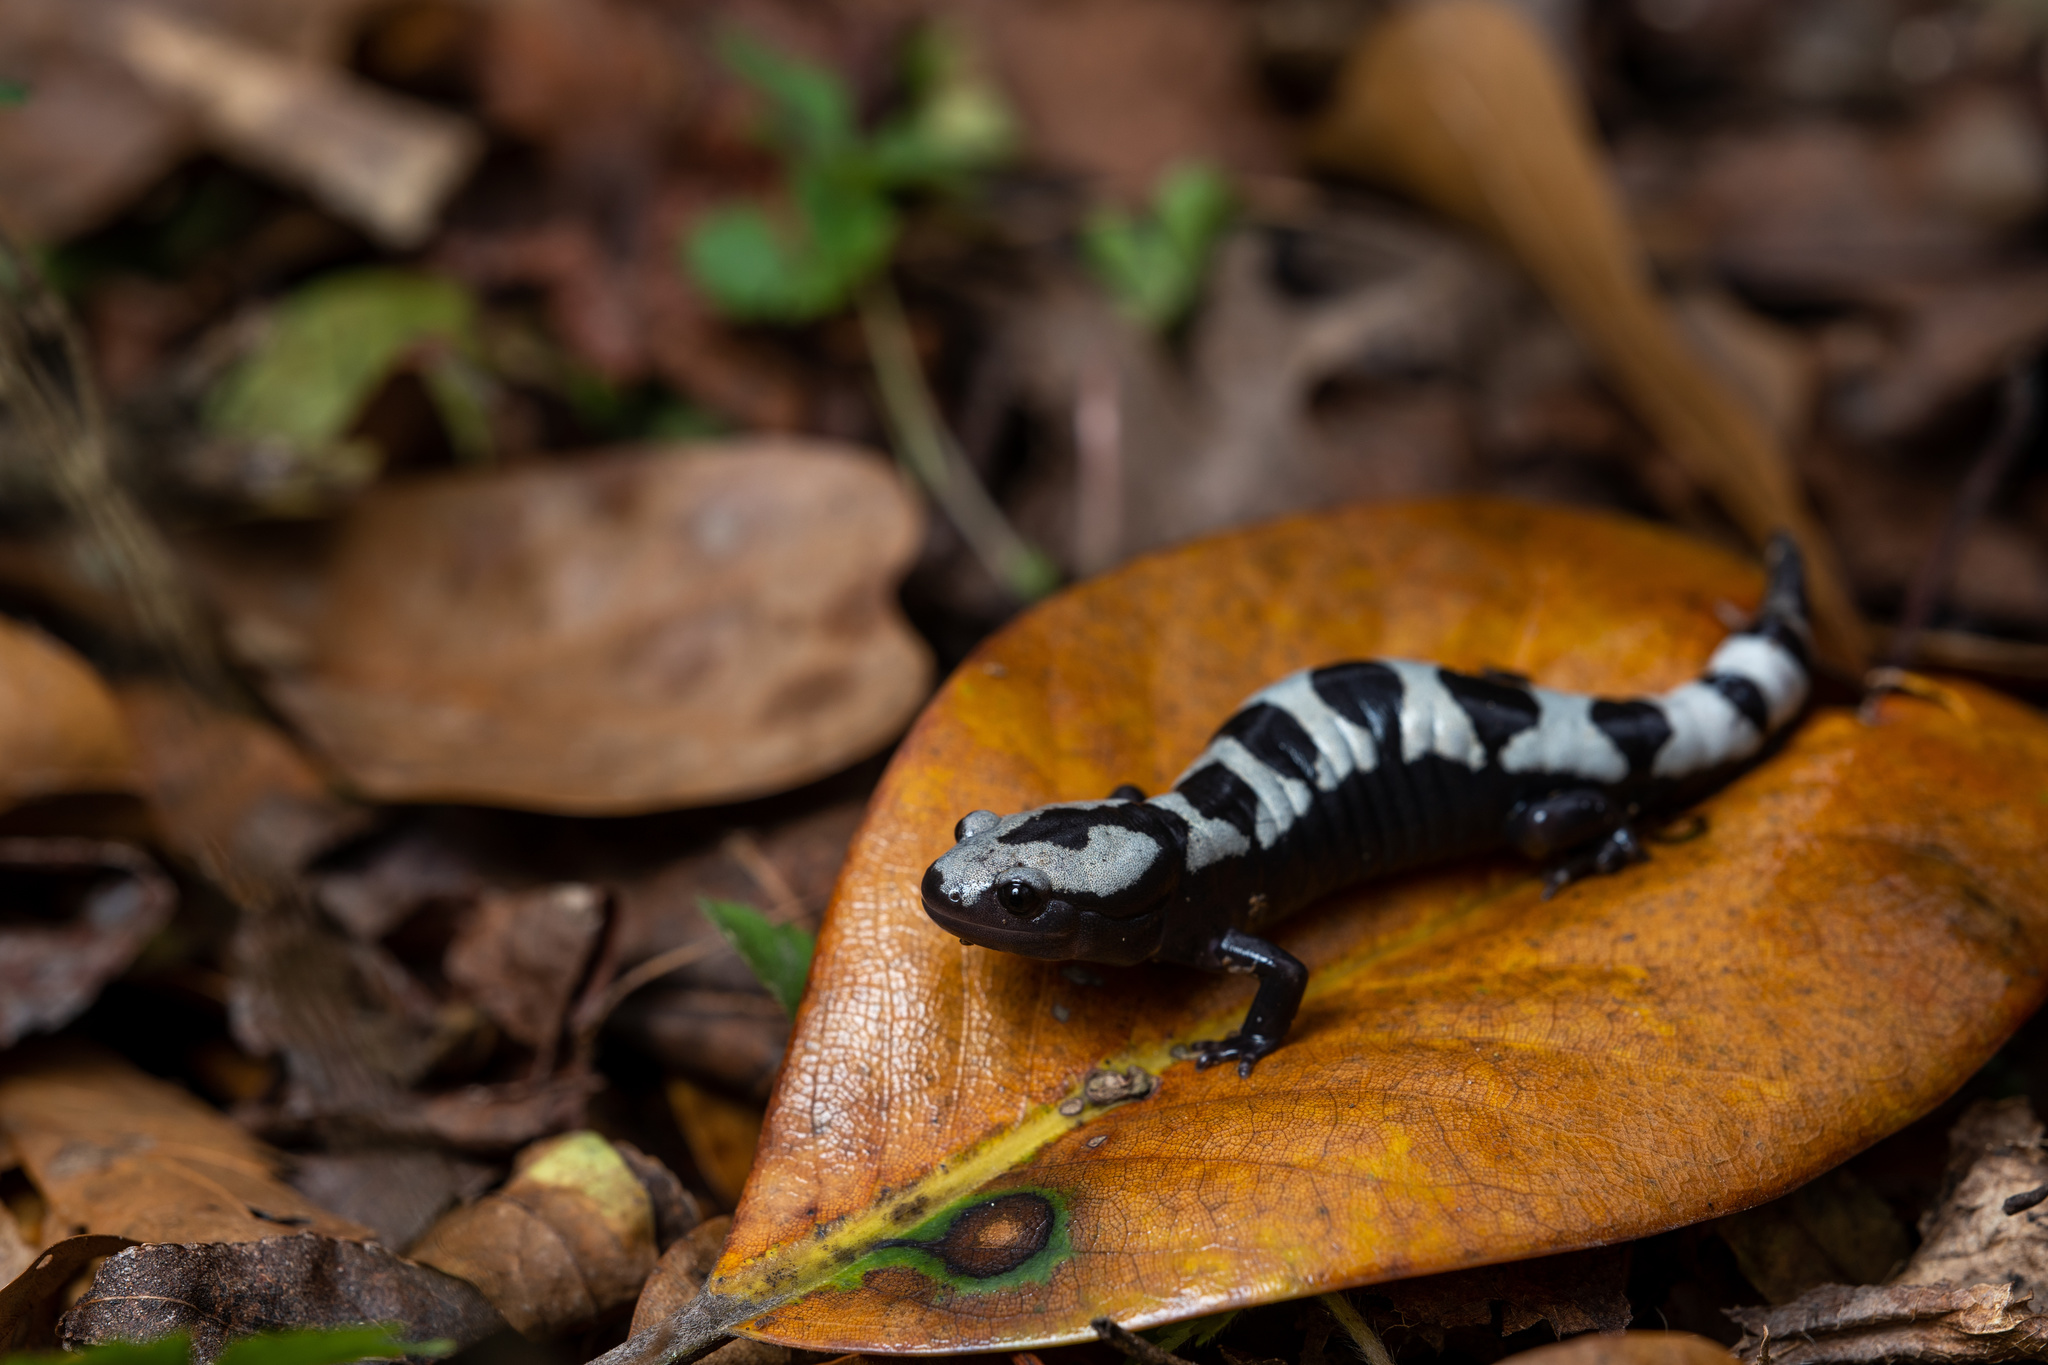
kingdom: Animalia
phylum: Chordata
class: Amphibia
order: Caudata
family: Ambystomatidae
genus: Ambystoma
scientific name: Ambystoma opacum
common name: Marbled salamander
